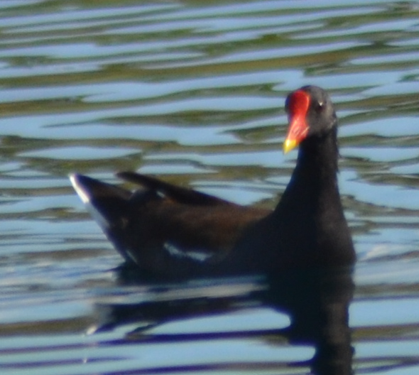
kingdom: Animalia
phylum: Chordata
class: Aves
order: Gruiformes
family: Rallidae
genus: Gallinula
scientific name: Gallinula chloropus
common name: Common moorhen
